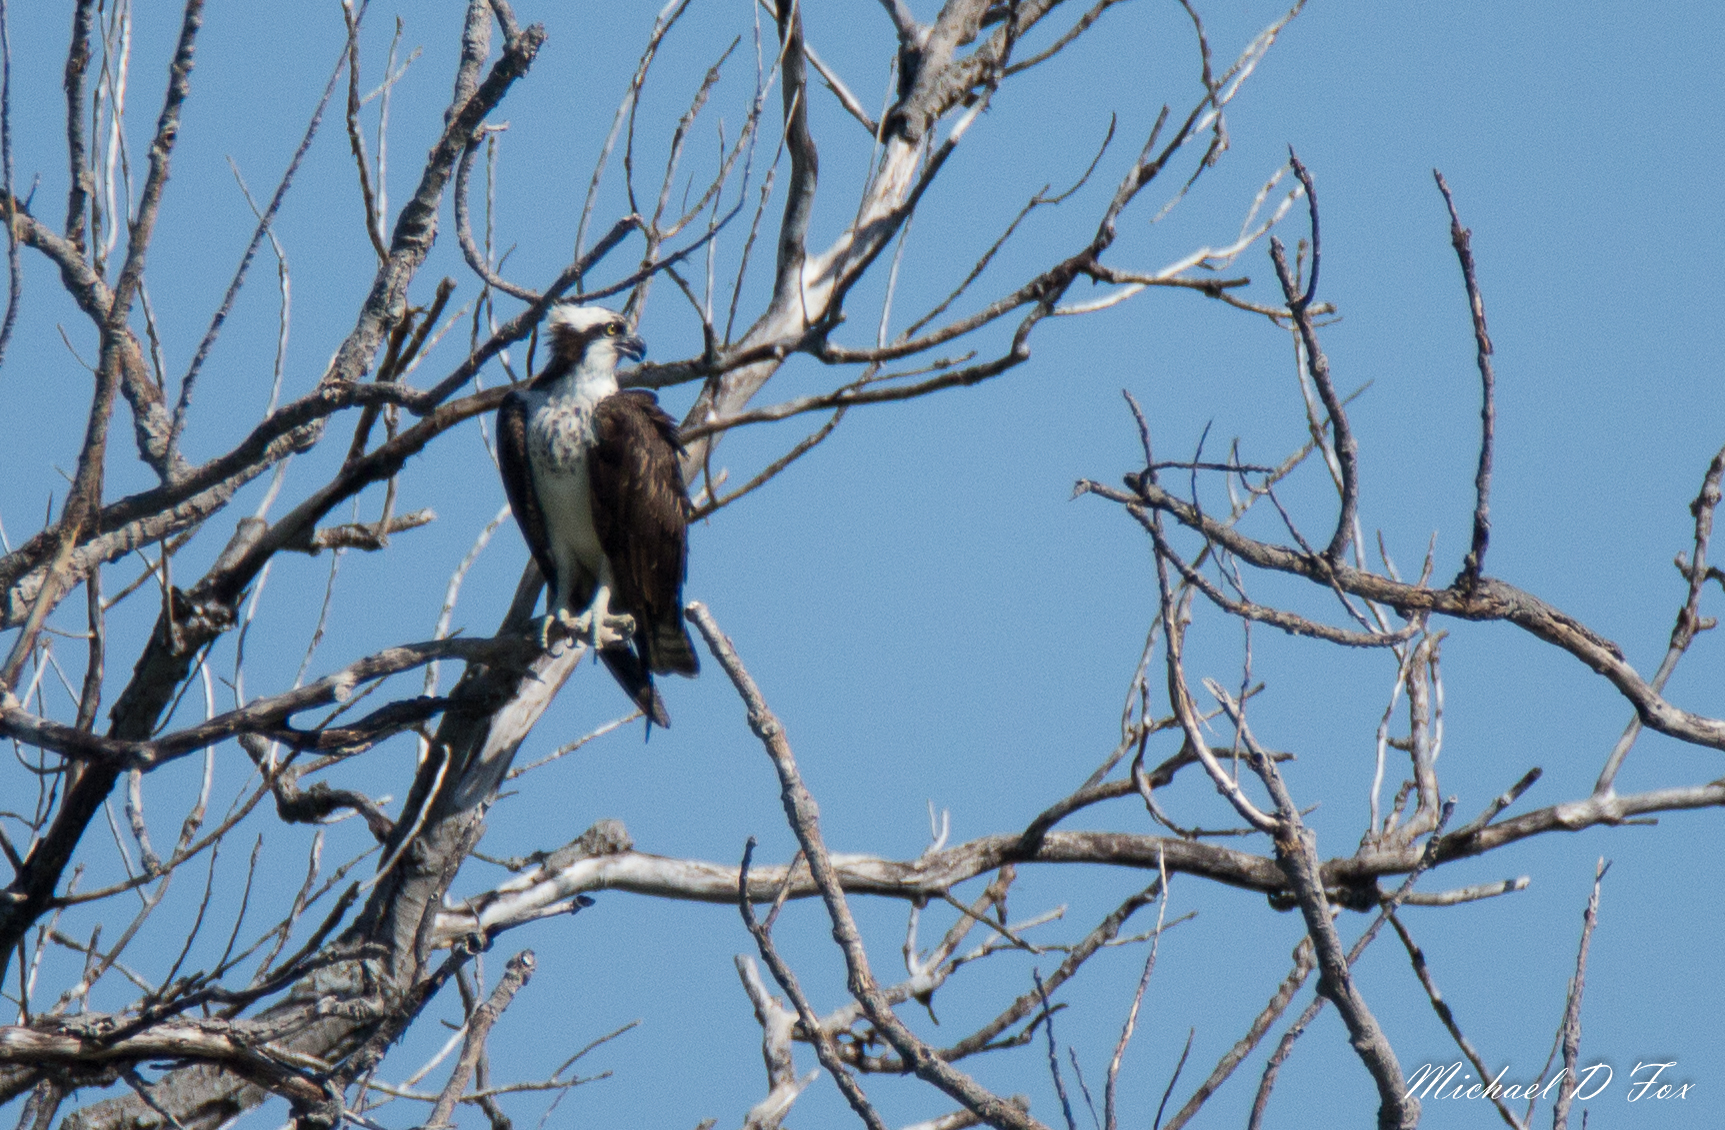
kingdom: Animalia
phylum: Chordata
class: Aves
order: Accipitriformes
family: Pandionidae
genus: Pandion
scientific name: Pandion haliaetus
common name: Osprey
